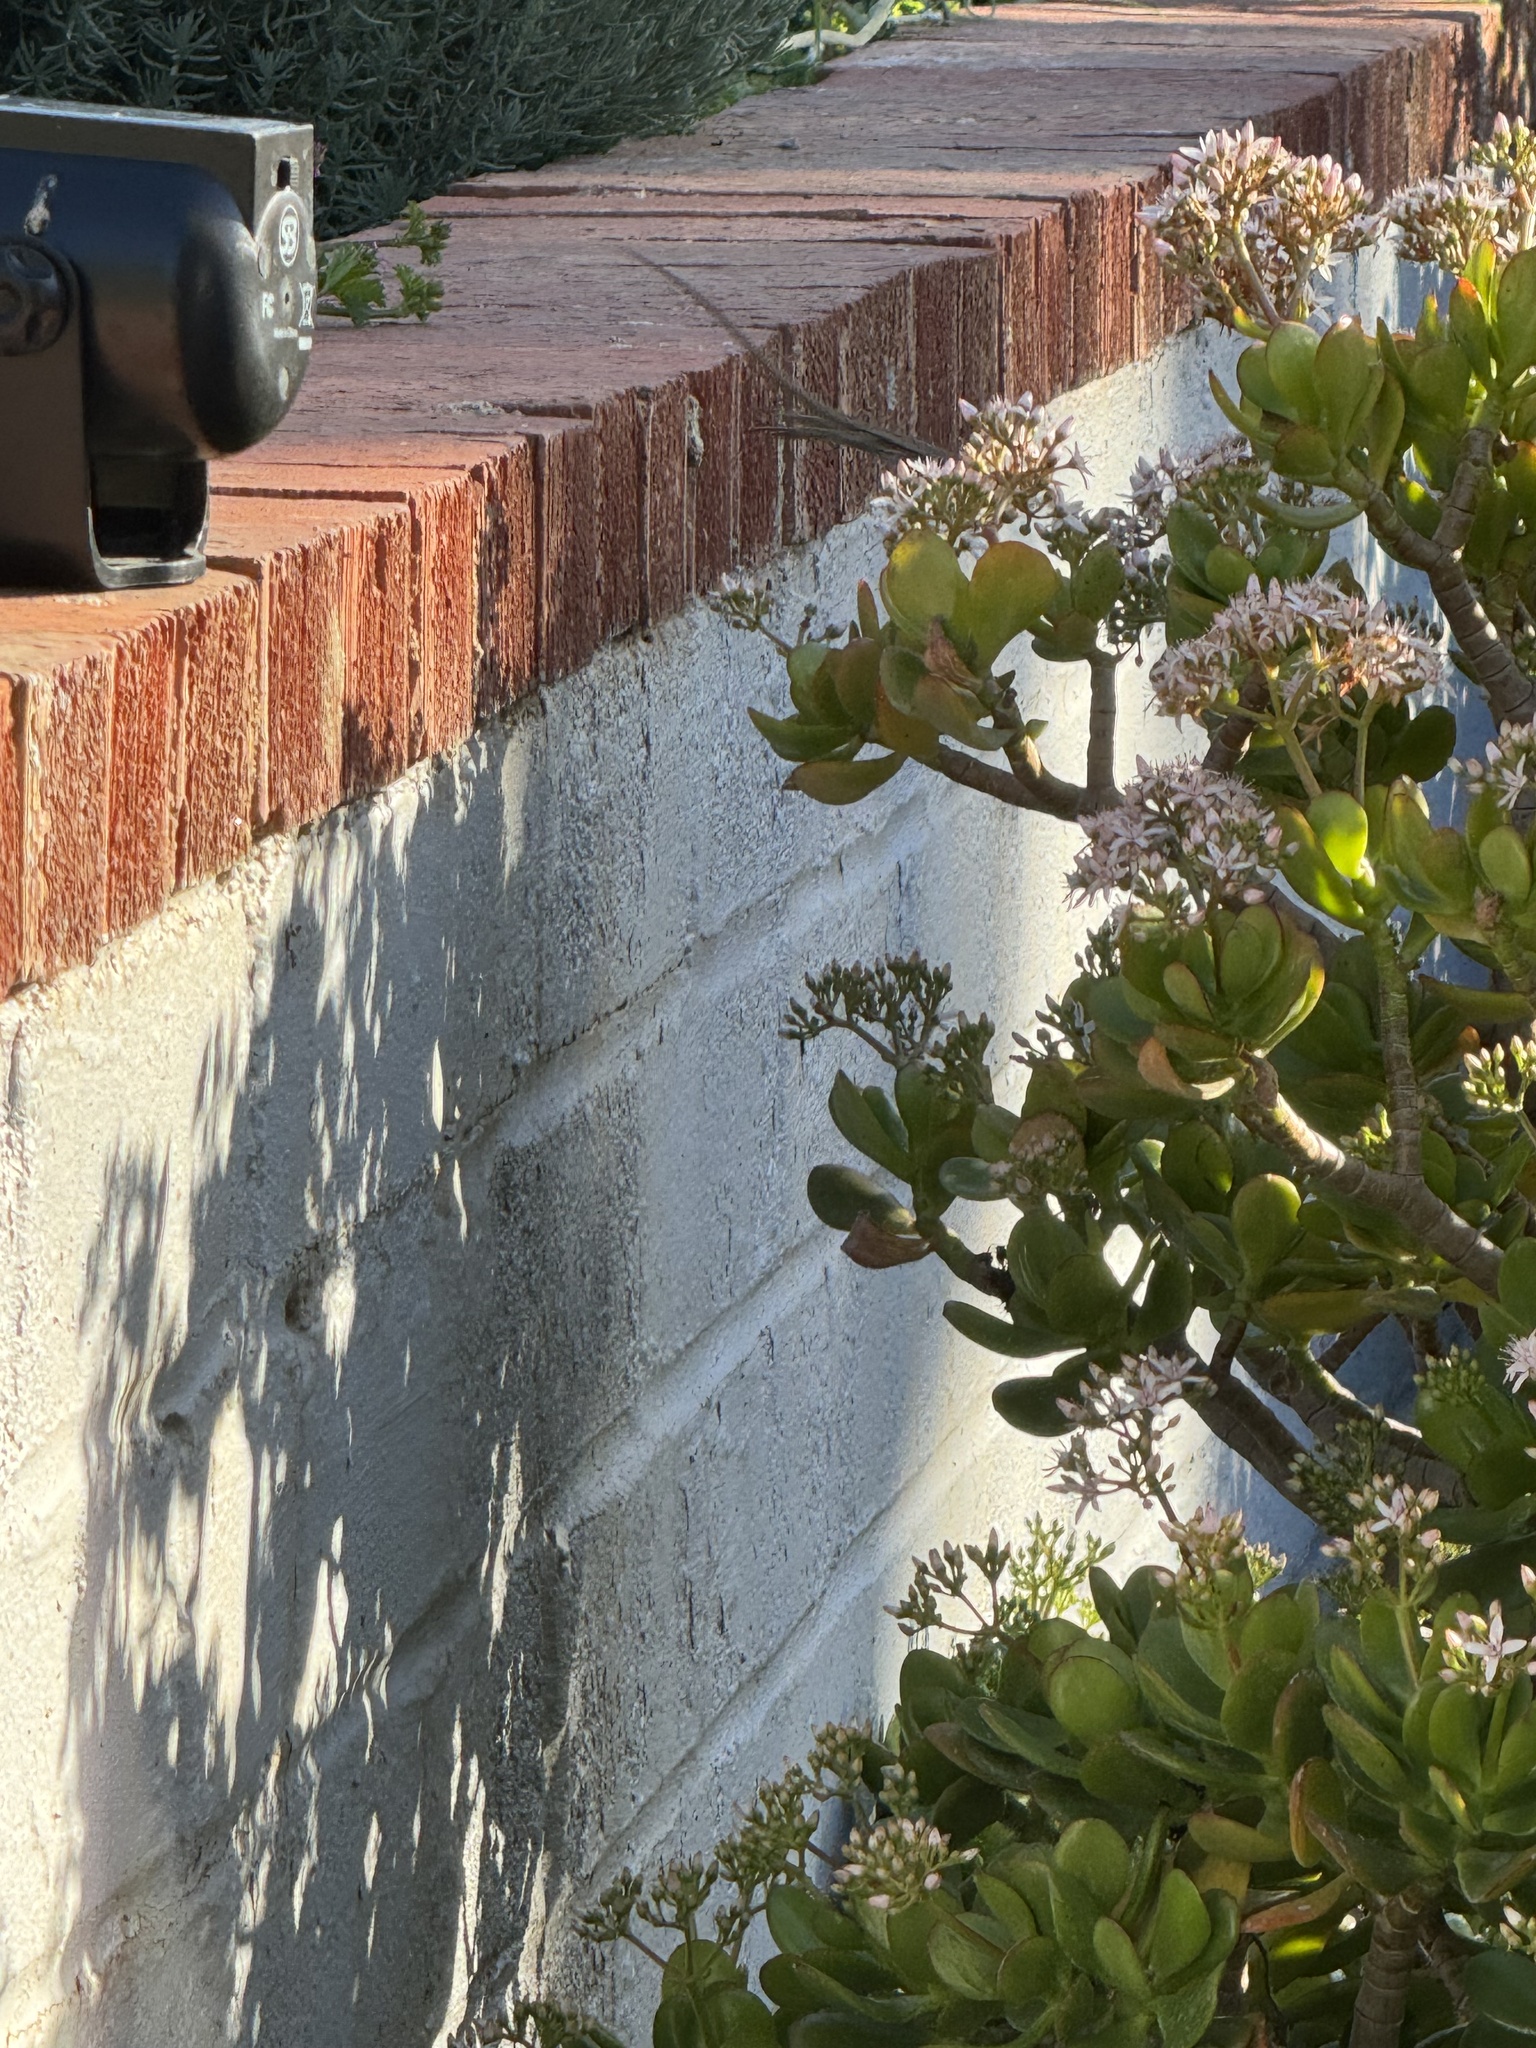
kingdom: Animalia
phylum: Chordata
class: Squamata
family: Phrynosomatidae
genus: Sceloporus
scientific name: Sceloporus occidentalis
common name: Western fence lizard
